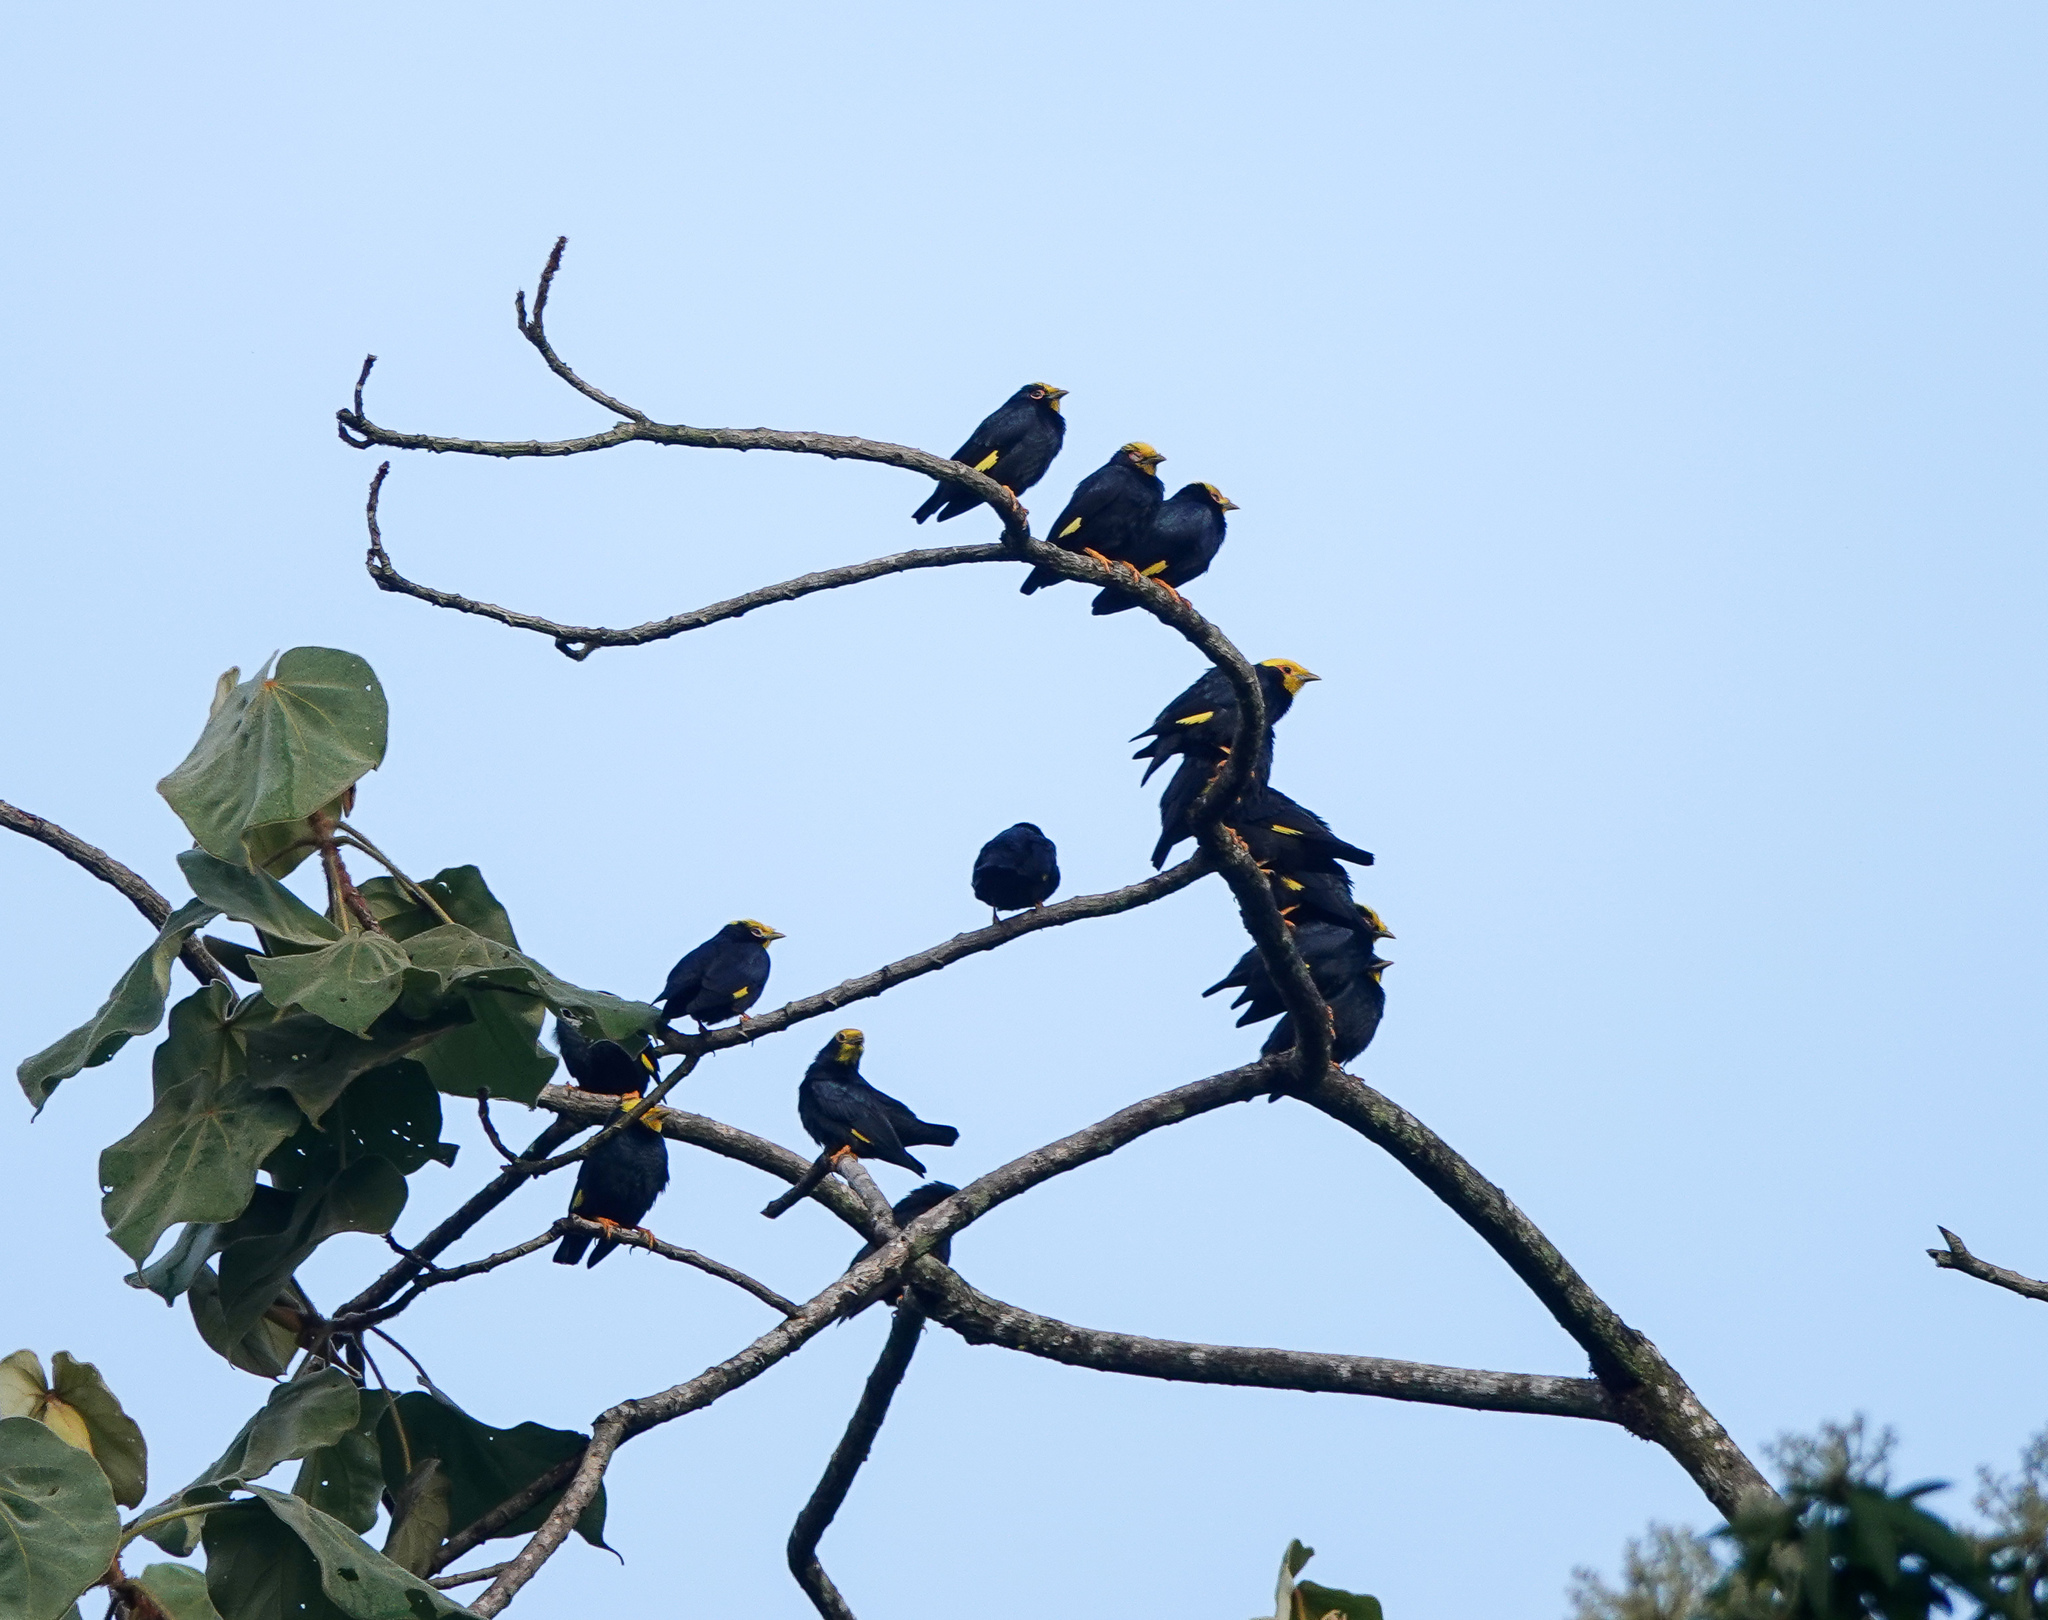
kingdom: Animalia
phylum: Chordata
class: Aves
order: Passeriformes
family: Sturnidae
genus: Ampeliceps
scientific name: Ampeliceps coronatus
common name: Golden-crested myna
